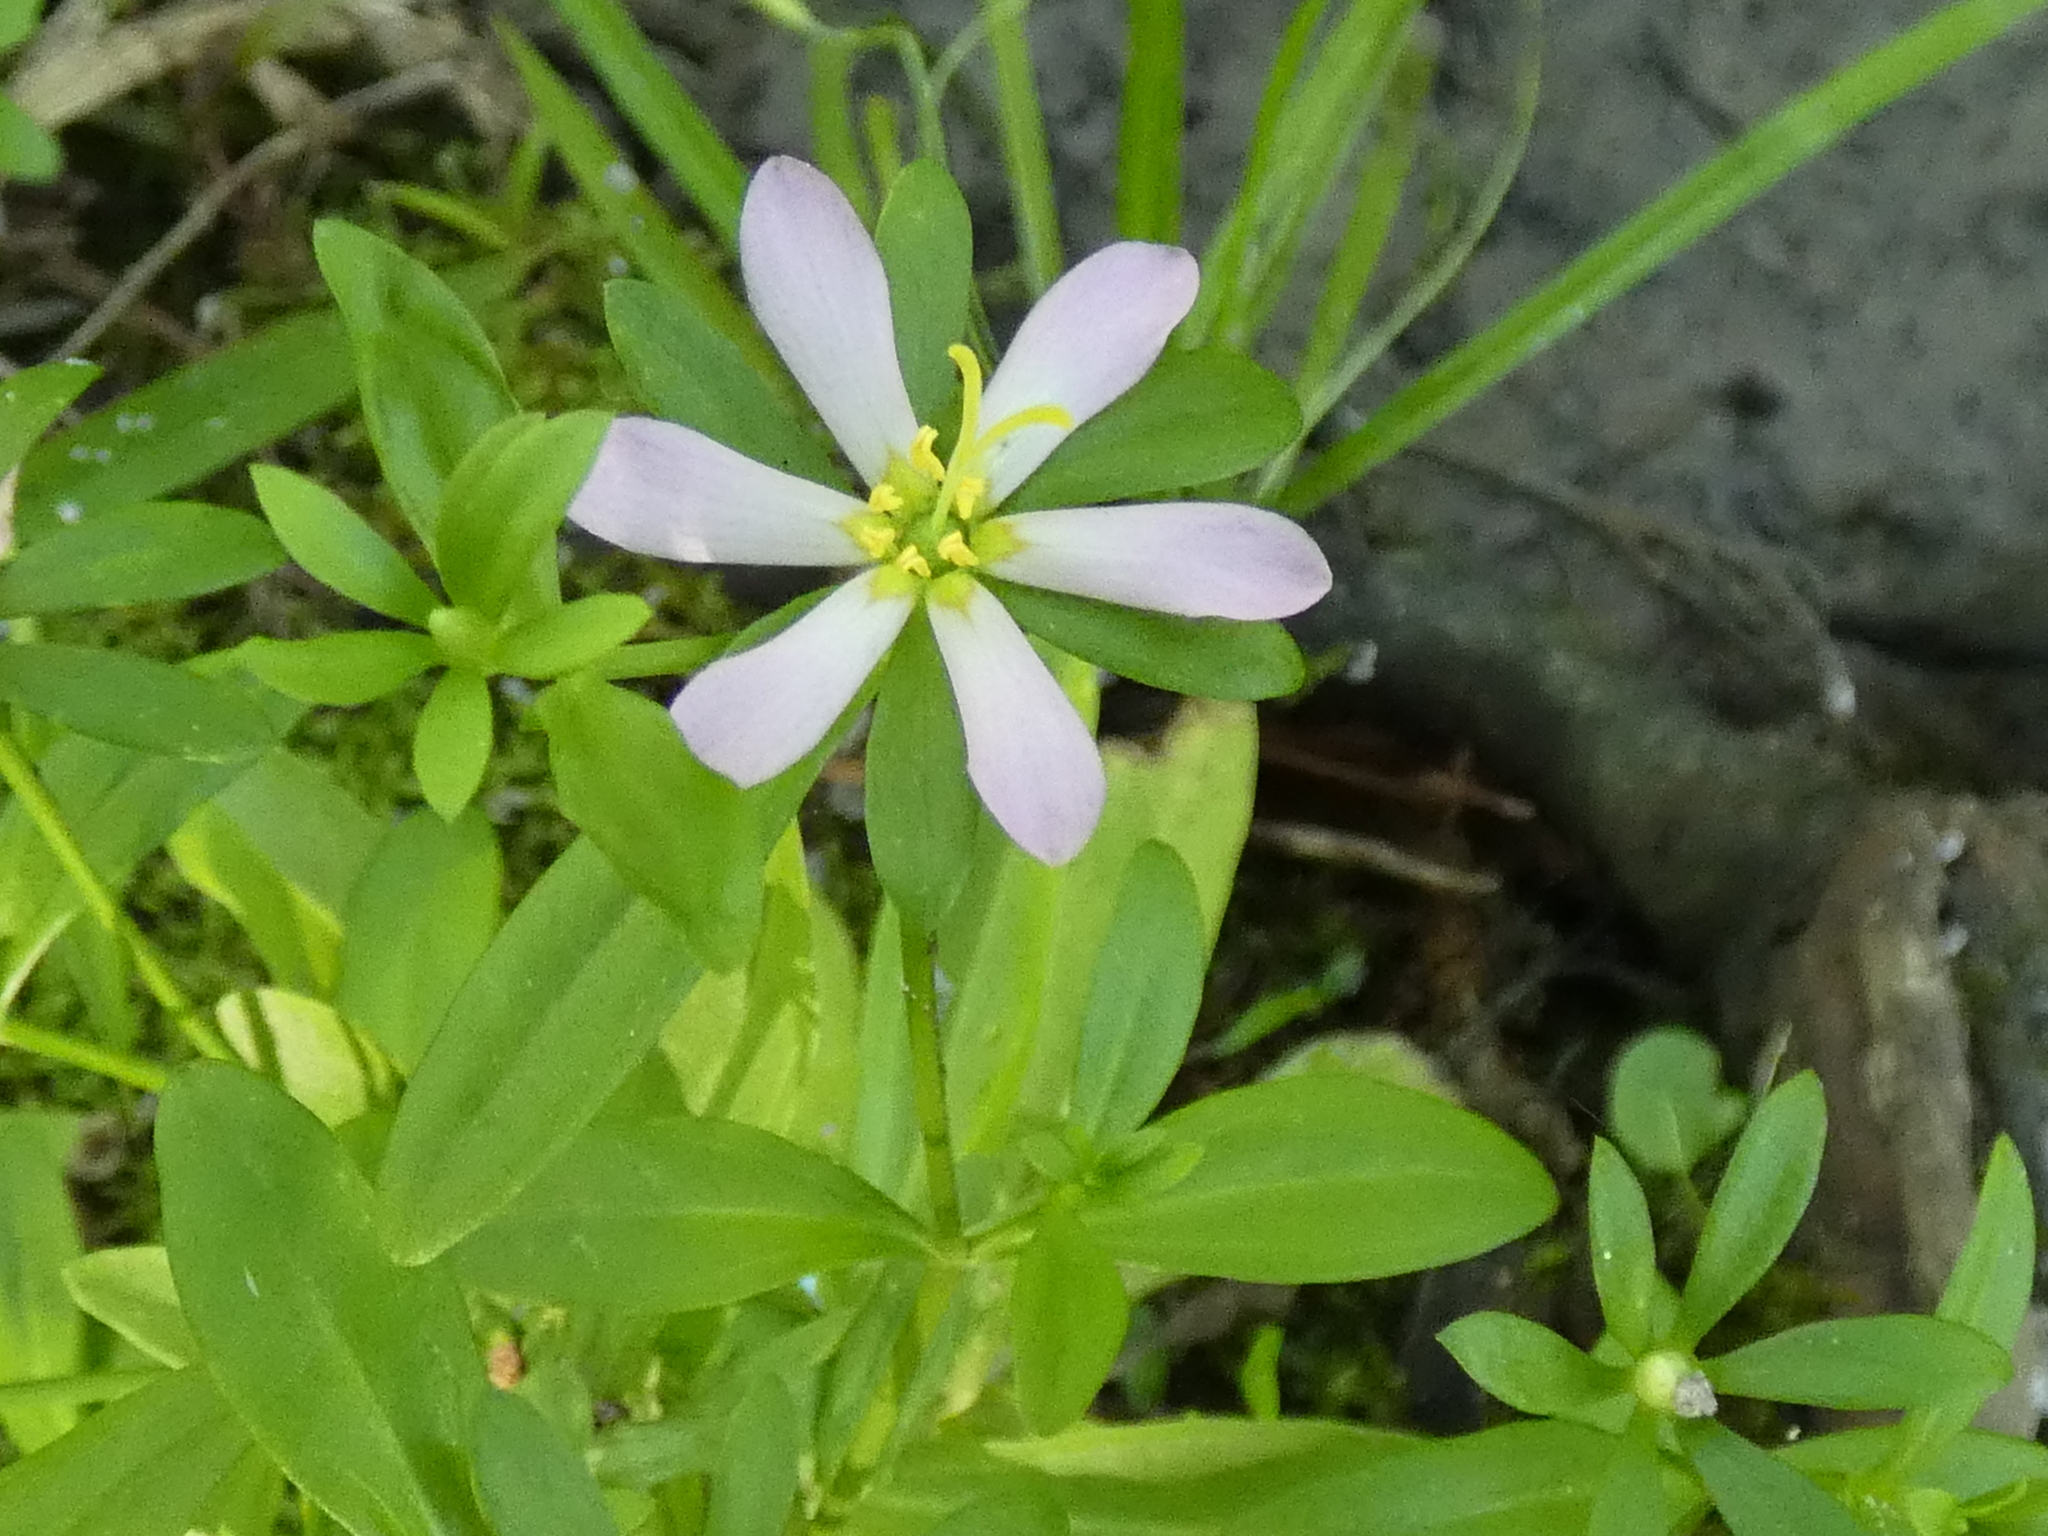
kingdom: Plantae
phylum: Tracheophyta
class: Magnoliopsida
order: Gentianales
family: Gentianaceae
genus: Sabatia
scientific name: Sabatia calycina
